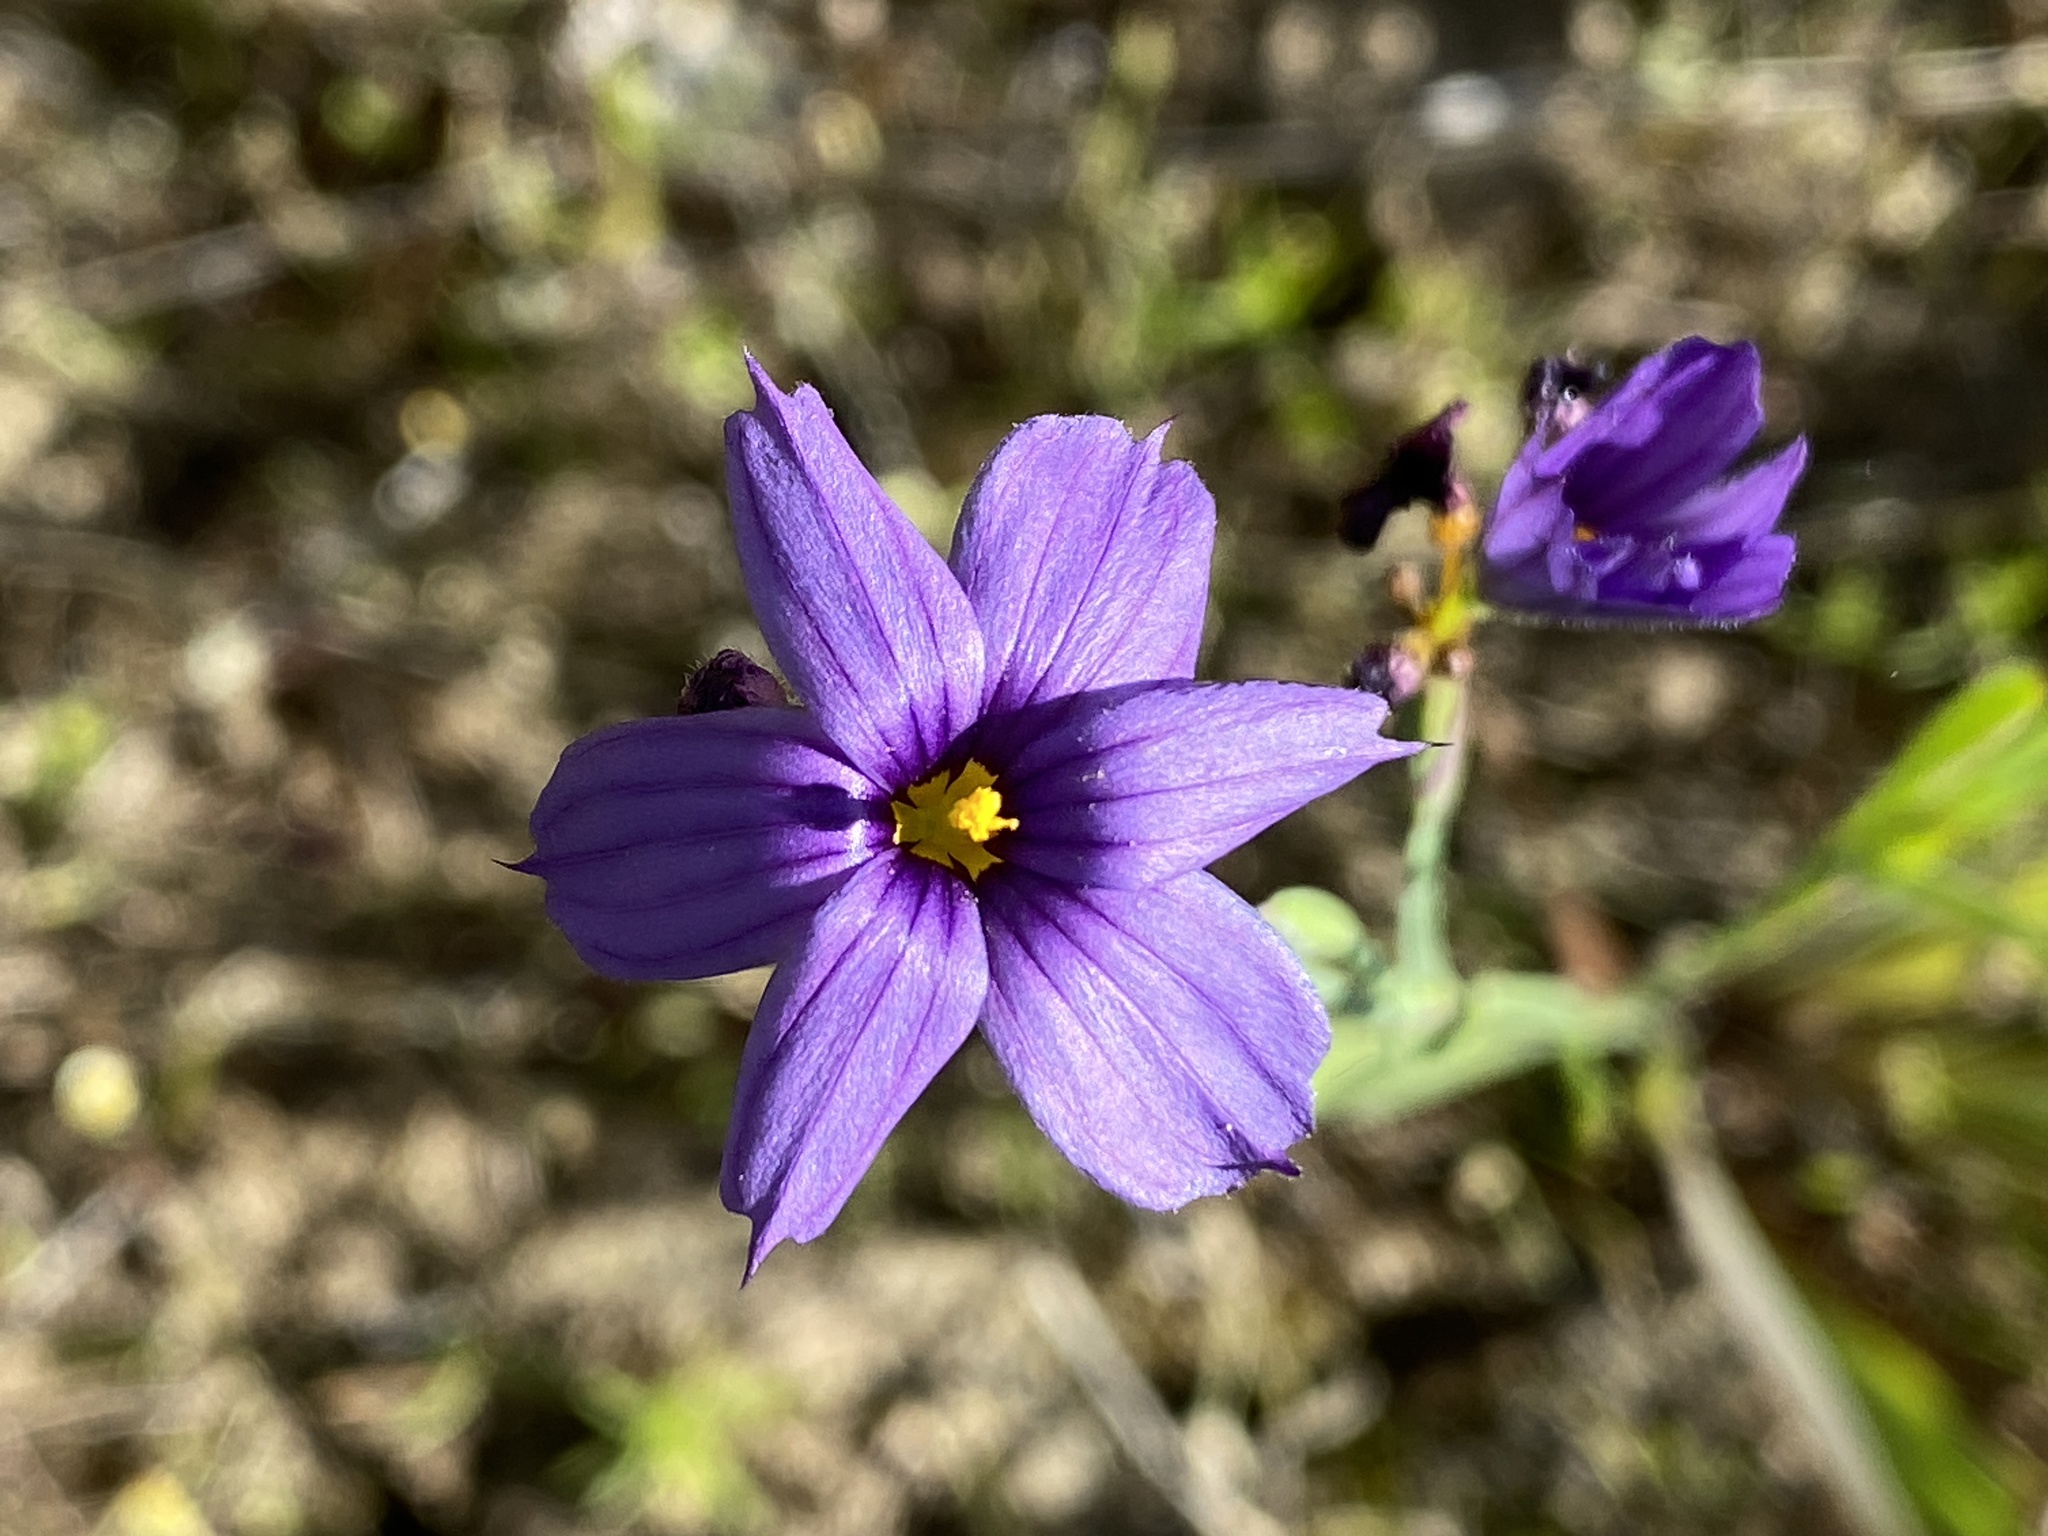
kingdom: Plantae
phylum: Tracheophyta
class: Liliopsida
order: Asparagales
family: Iridaceae
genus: Sisyrinchium
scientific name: Sisyrinchium bellum
